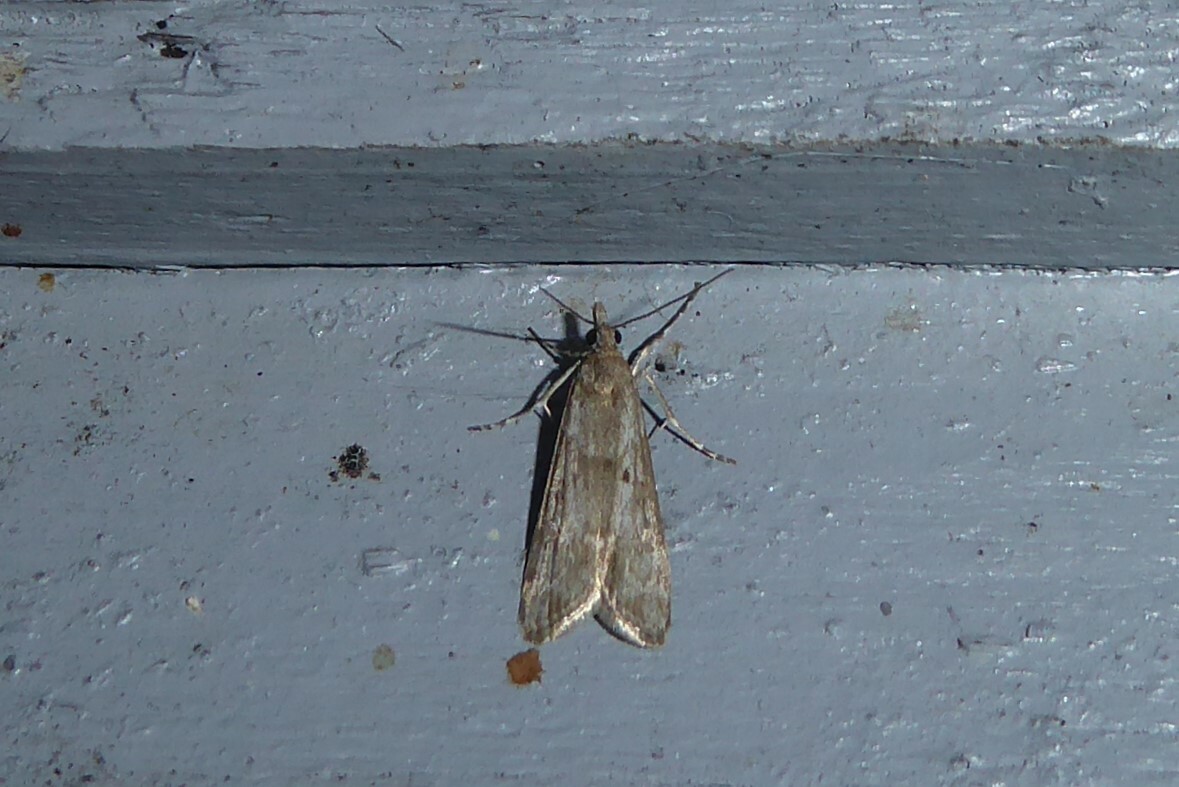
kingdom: Animalia
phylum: Arthropoda
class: Insecta
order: Lepidoptera
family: Crambidae
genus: Eudonia
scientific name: Eudonia leptalea
